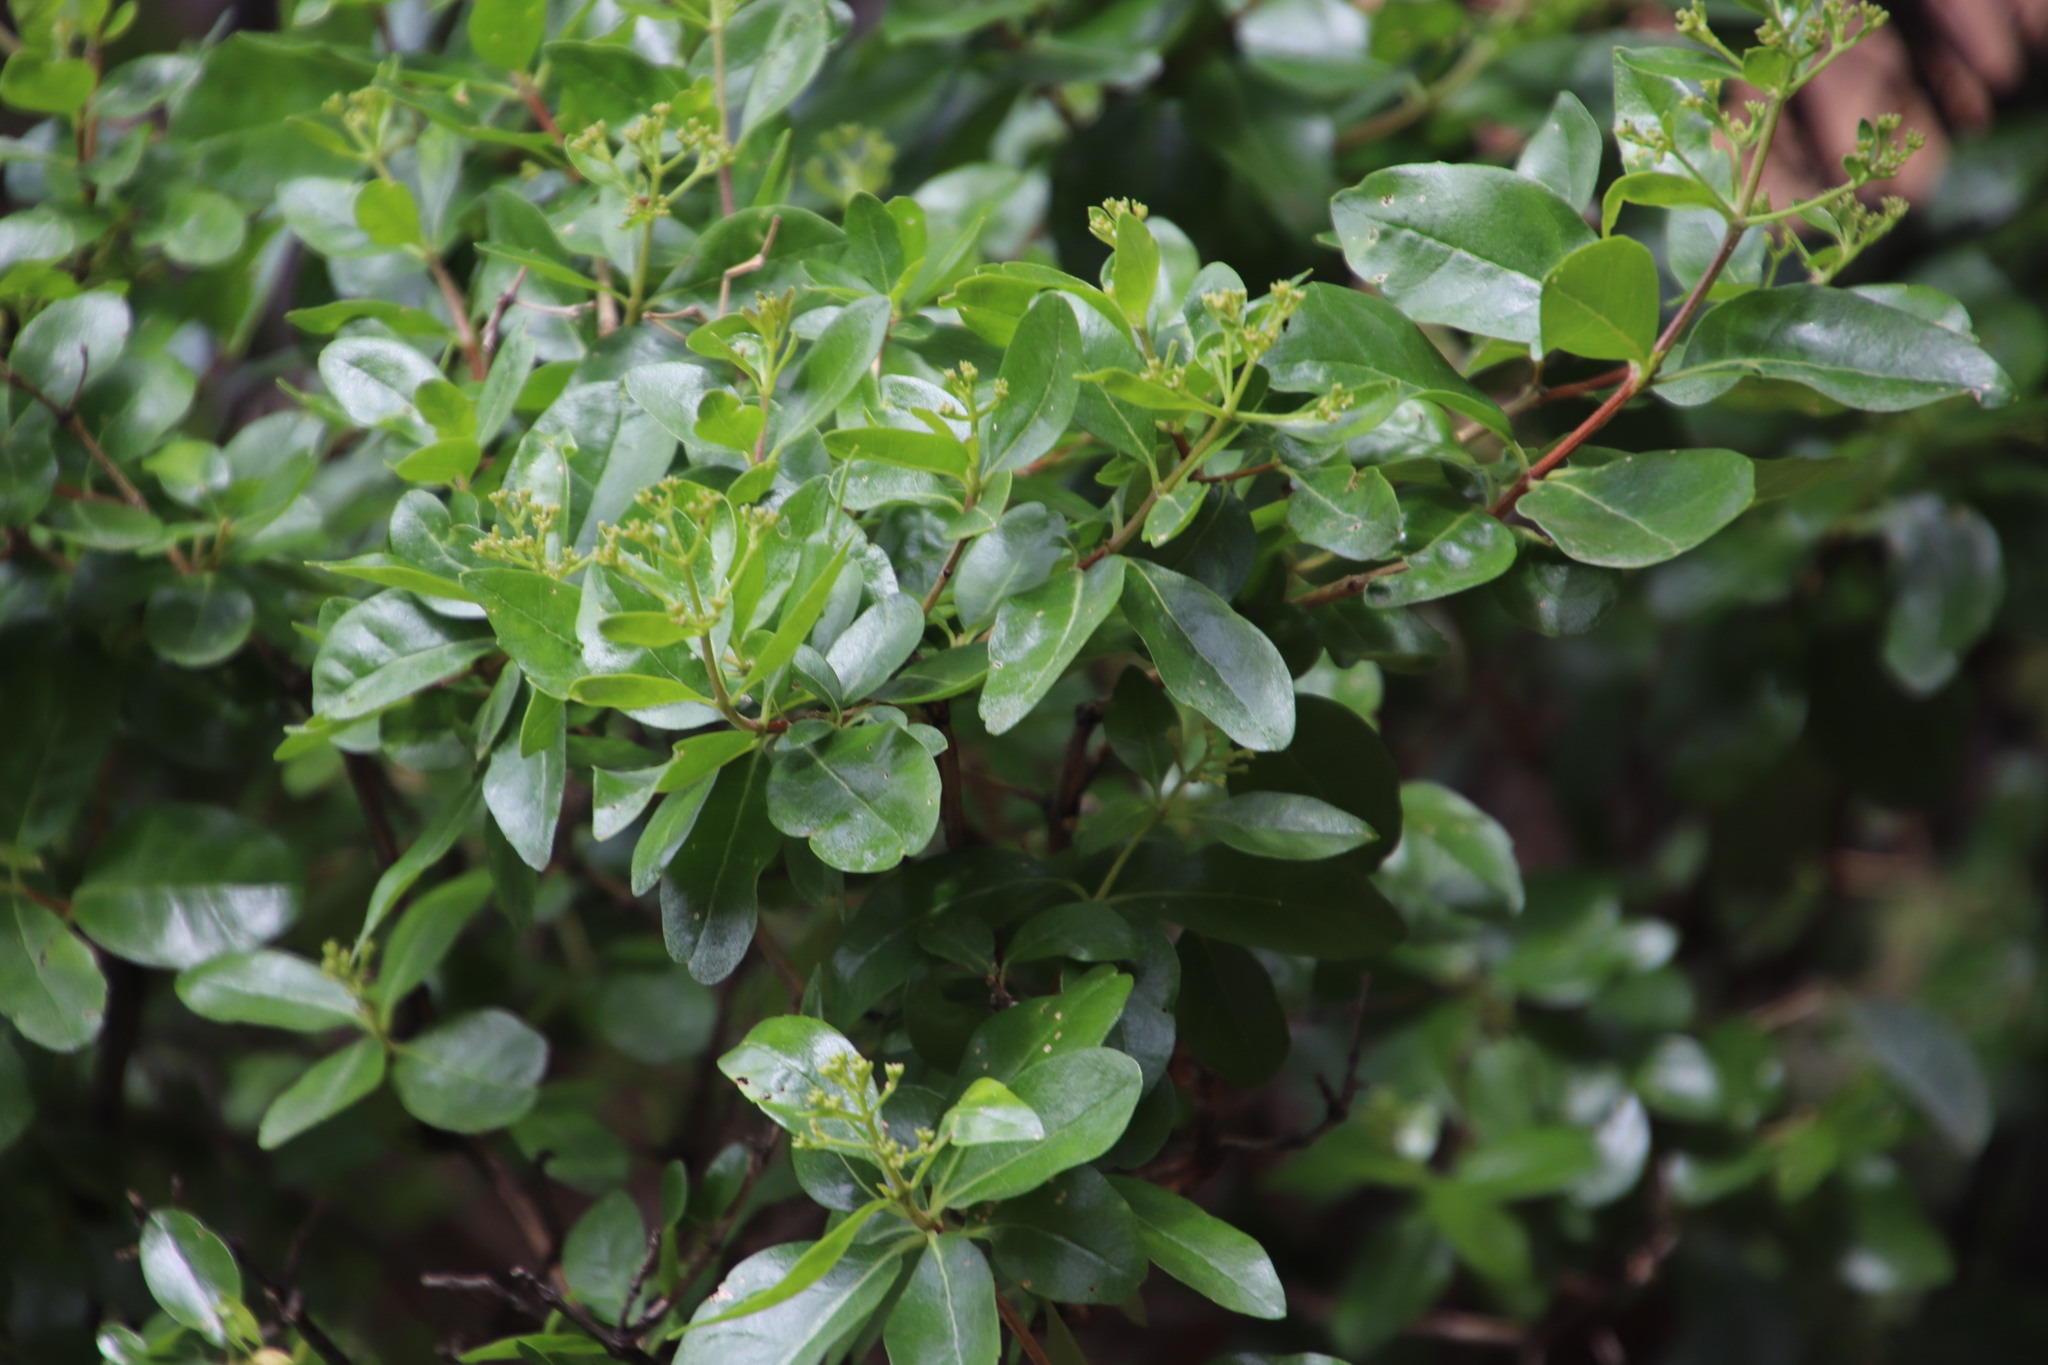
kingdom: Plantae
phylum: Tracheophyta
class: Magnoliopsida
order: Lamiales
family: Stilbaceae
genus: Nuxia
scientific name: Nuxia congesta
